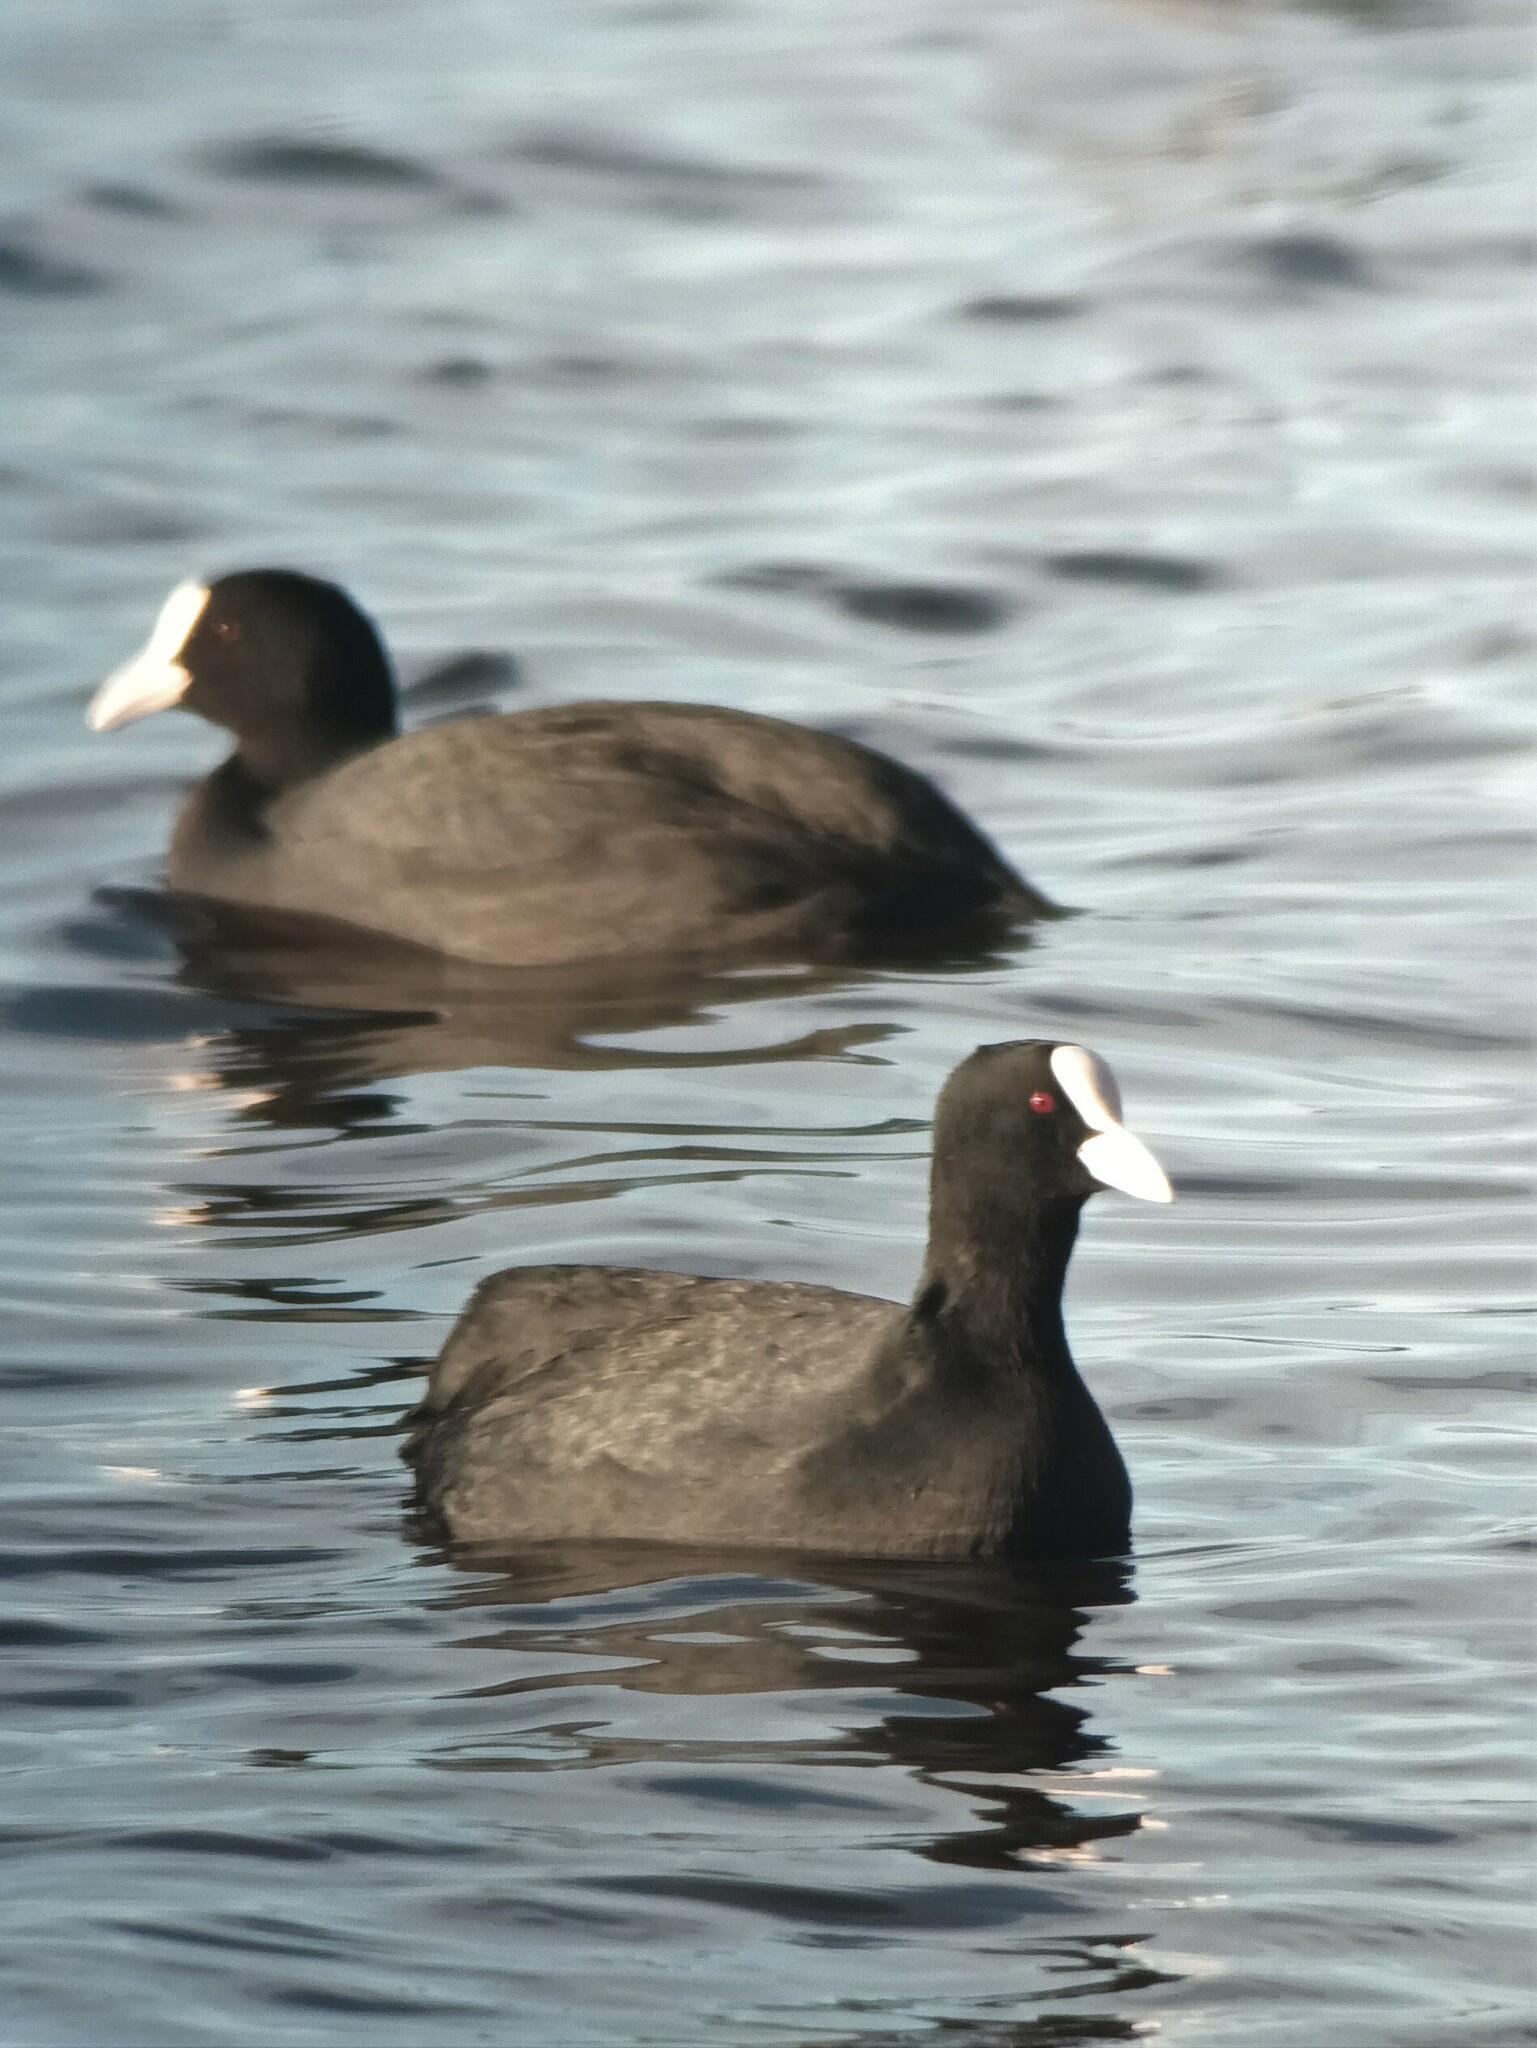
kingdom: Animalia
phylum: Chordata
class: Aves
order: Gruiformes
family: Rallidae
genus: Fulica
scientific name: Fulica atra
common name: Eurasian coot
